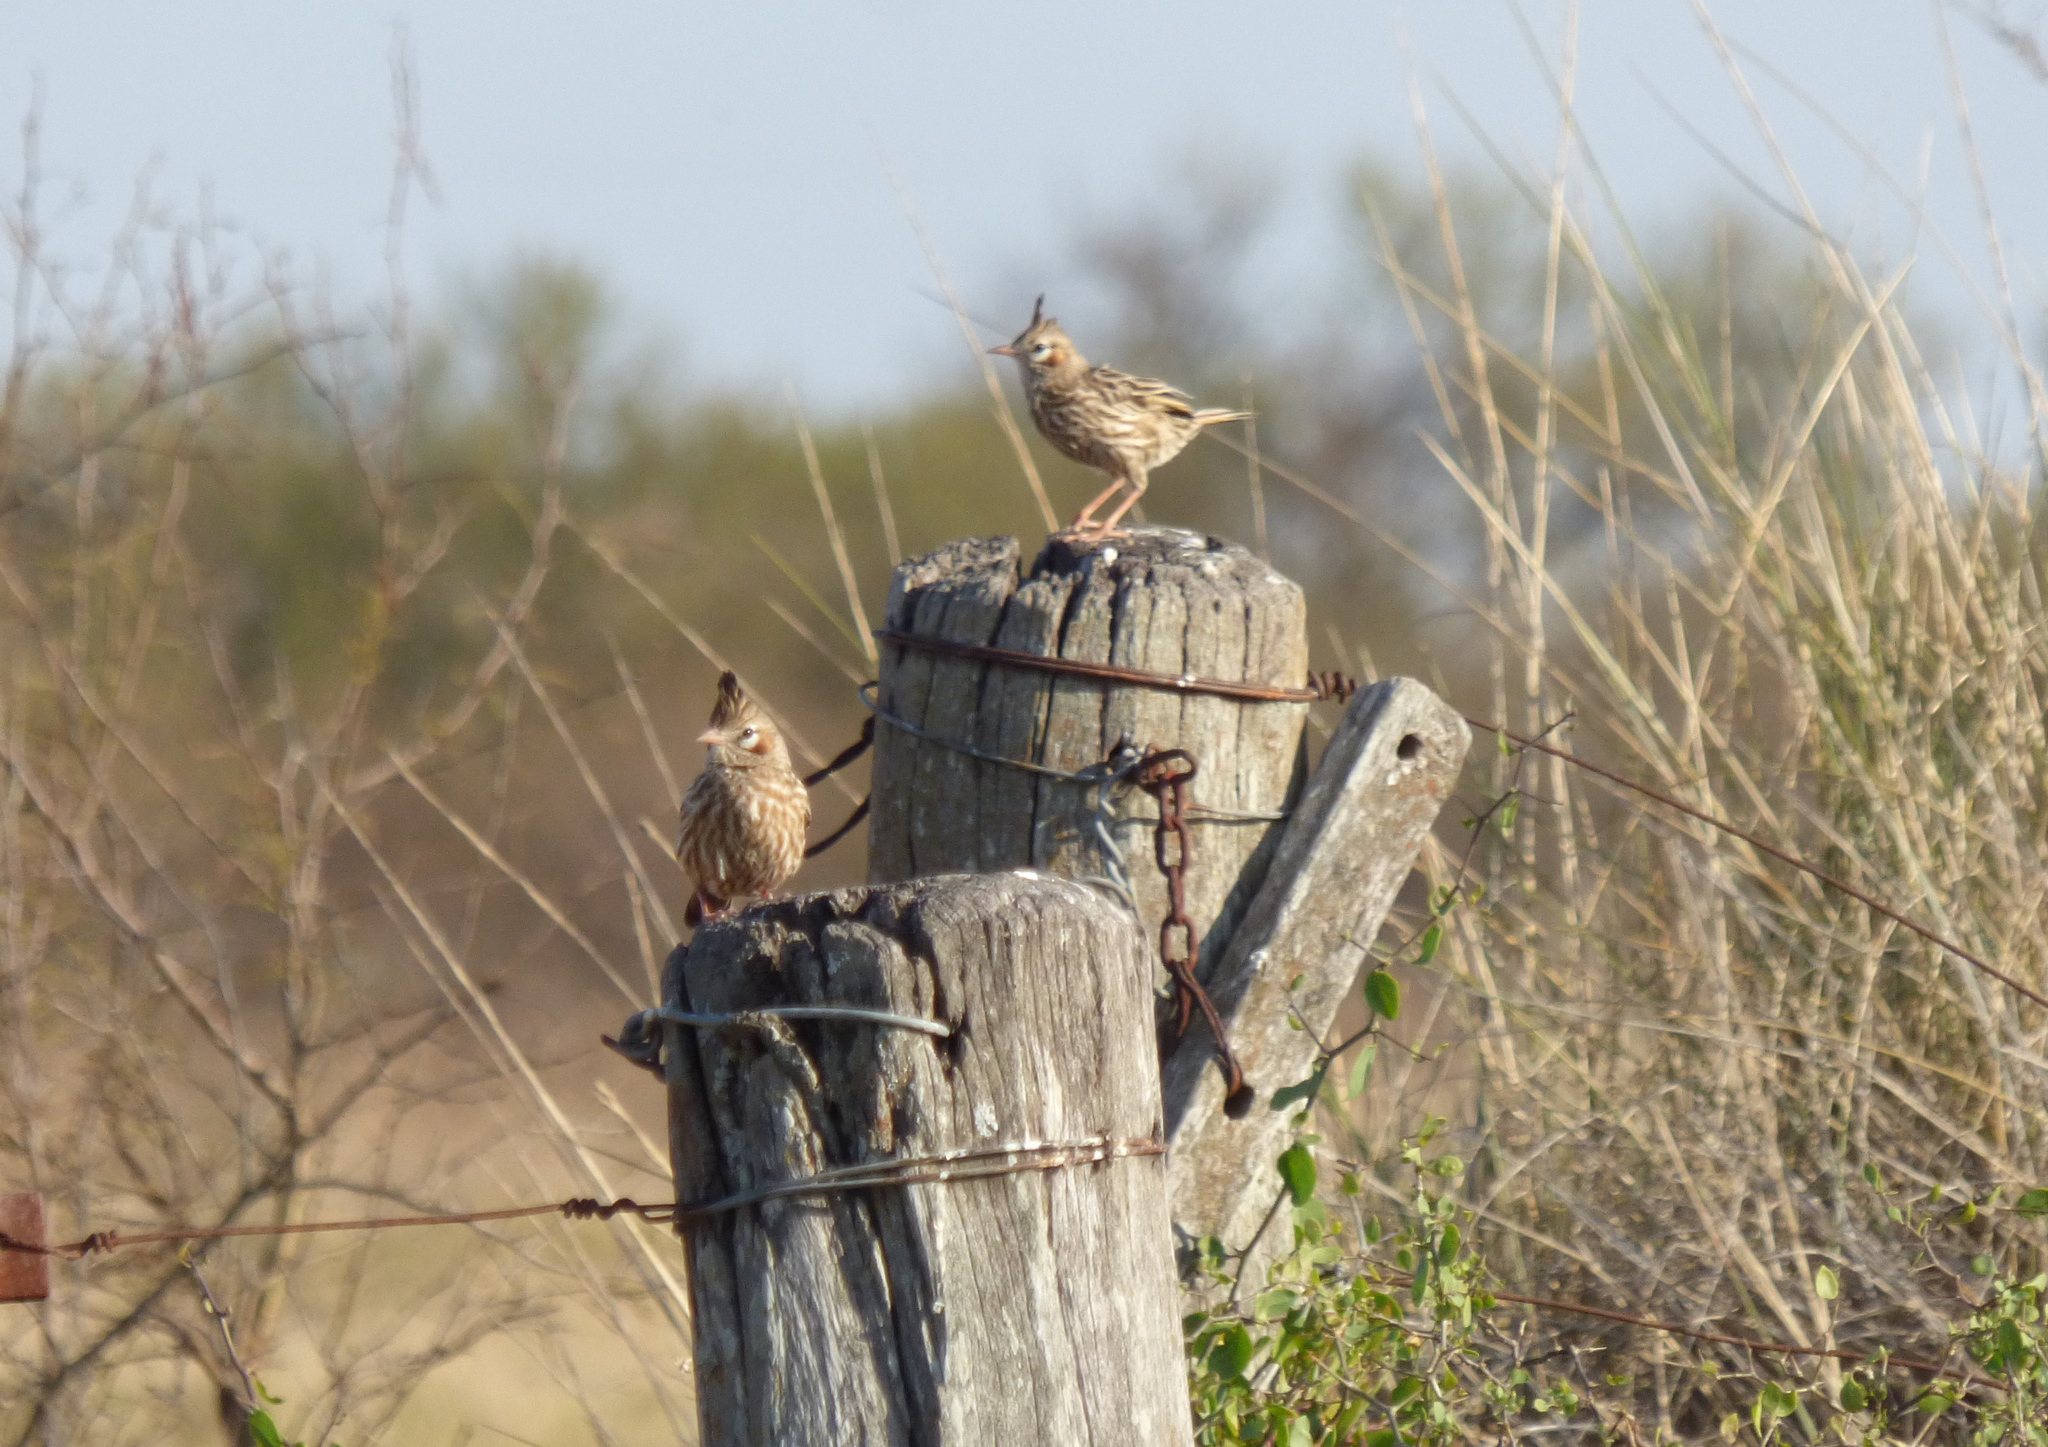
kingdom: Animalia
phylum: Chordata
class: Aves
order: Passeriformes
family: Furnariidae
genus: Coryphistera
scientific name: Coryphistera alaudina
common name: Lark-like brushrunner
